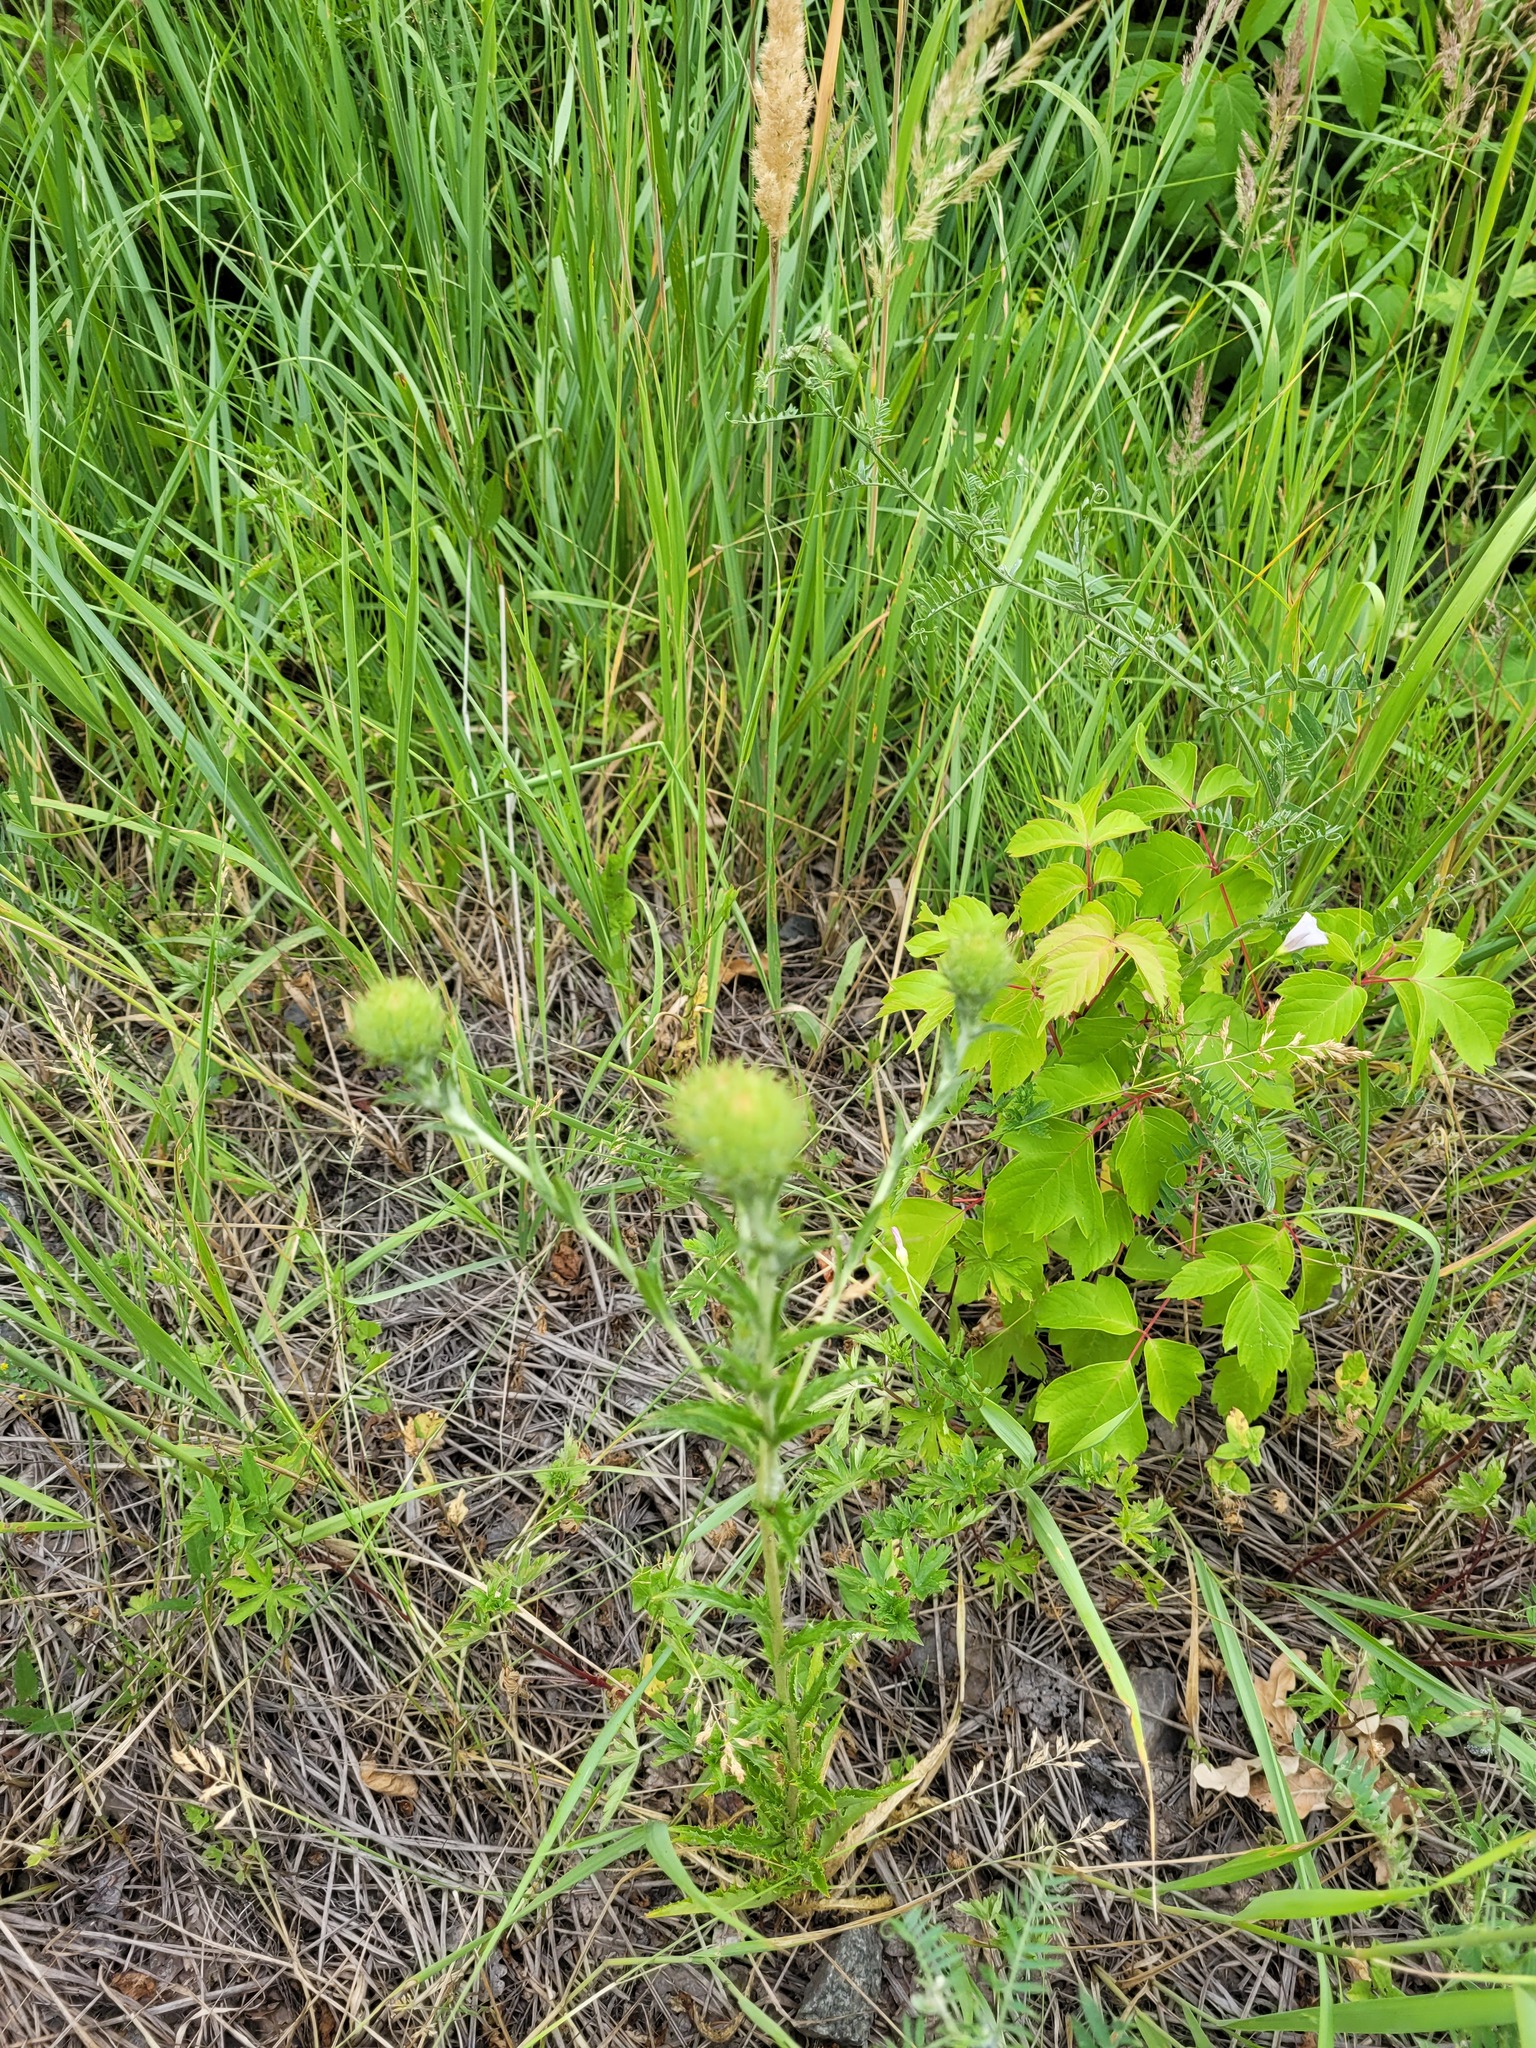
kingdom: Plantae
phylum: Tracheophyta
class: Magnoliopsida
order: Asterales
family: Asteraceae
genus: Carlina
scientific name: Carlina biebersteinii
